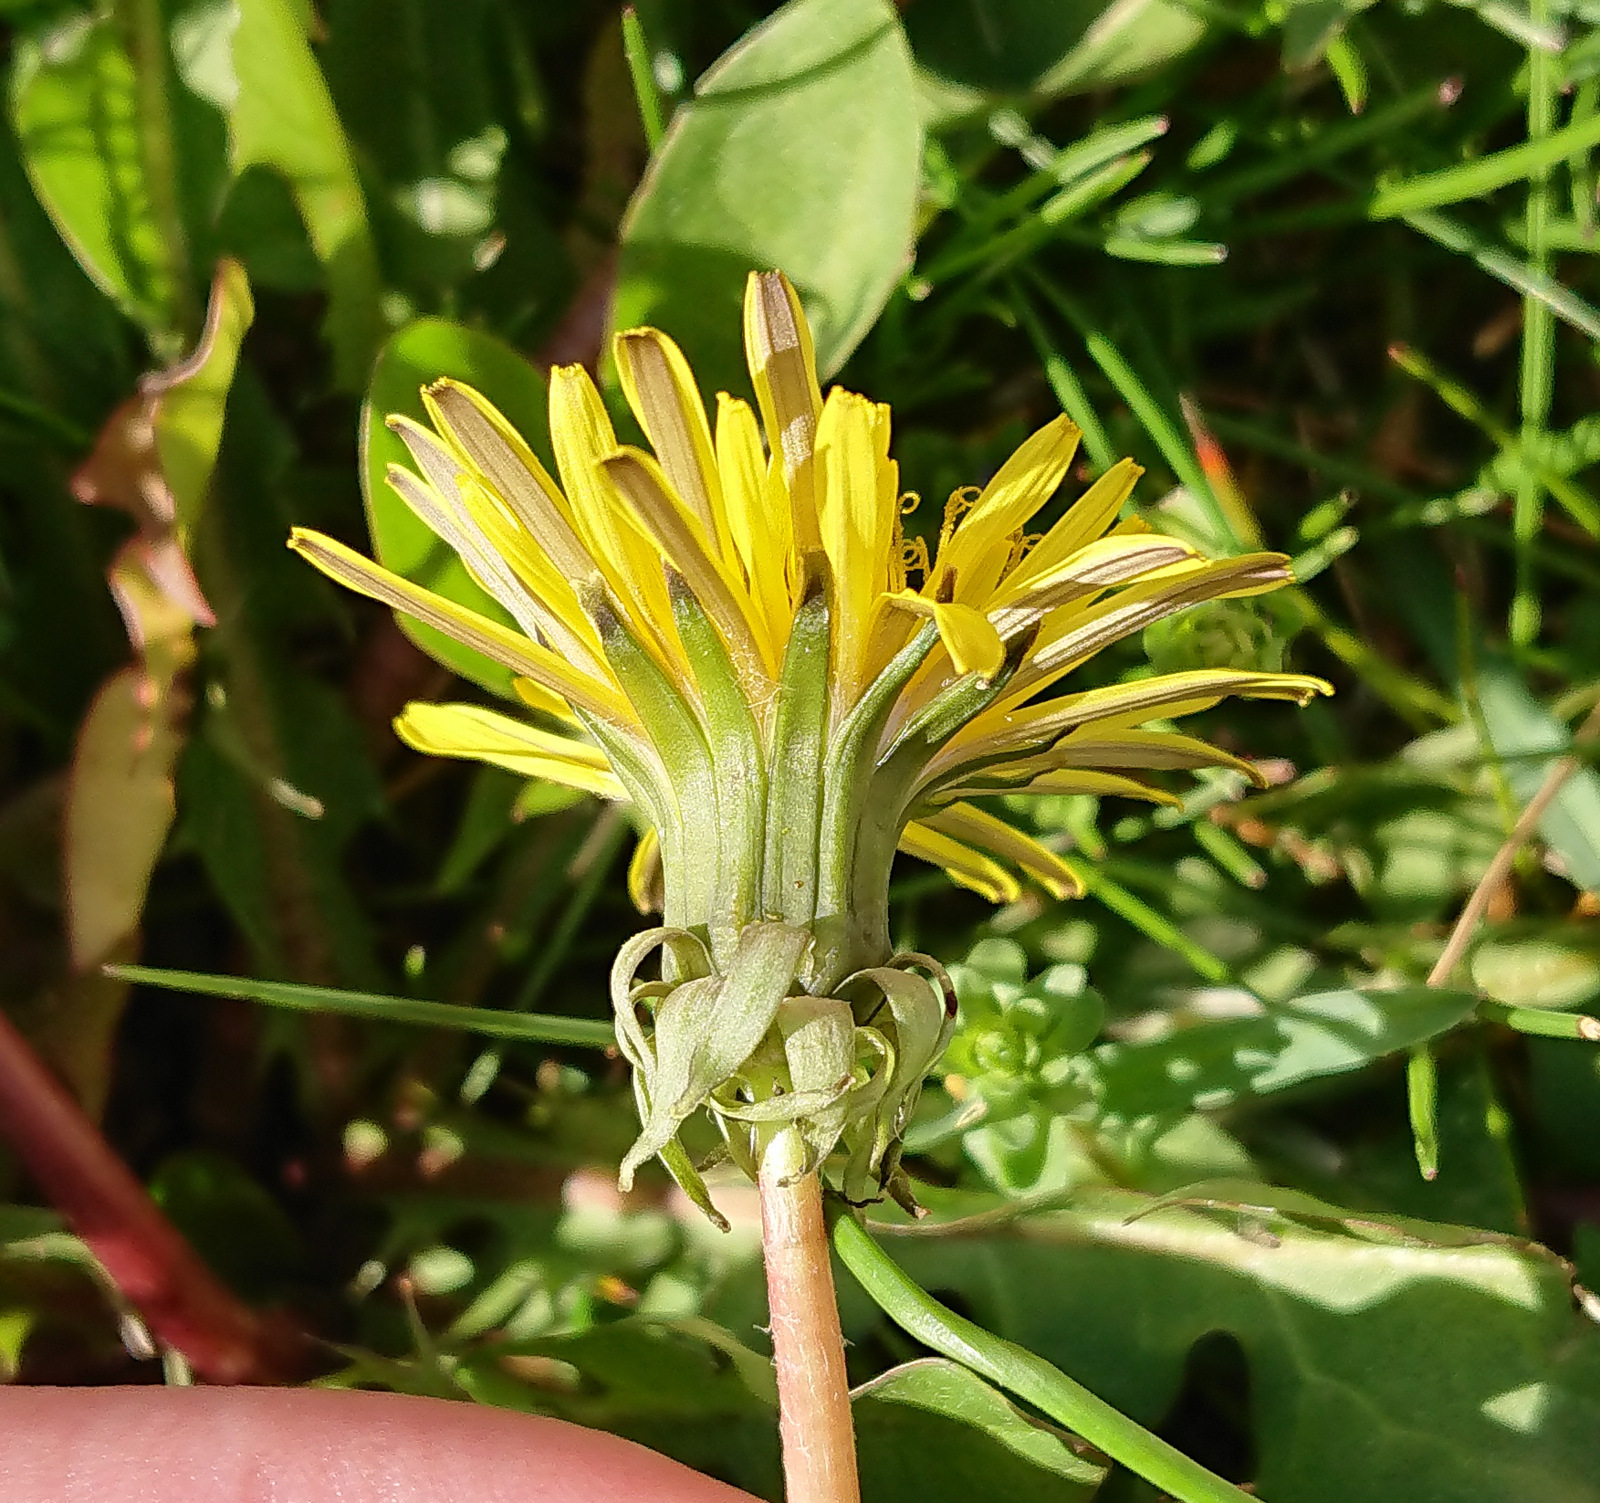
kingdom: Plantae
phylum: Tracheophyta
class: Magnoliopsida
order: Asterales
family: Asteraceae
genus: Taraxacum
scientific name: Taraxacum officinale
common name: Common dandelion
